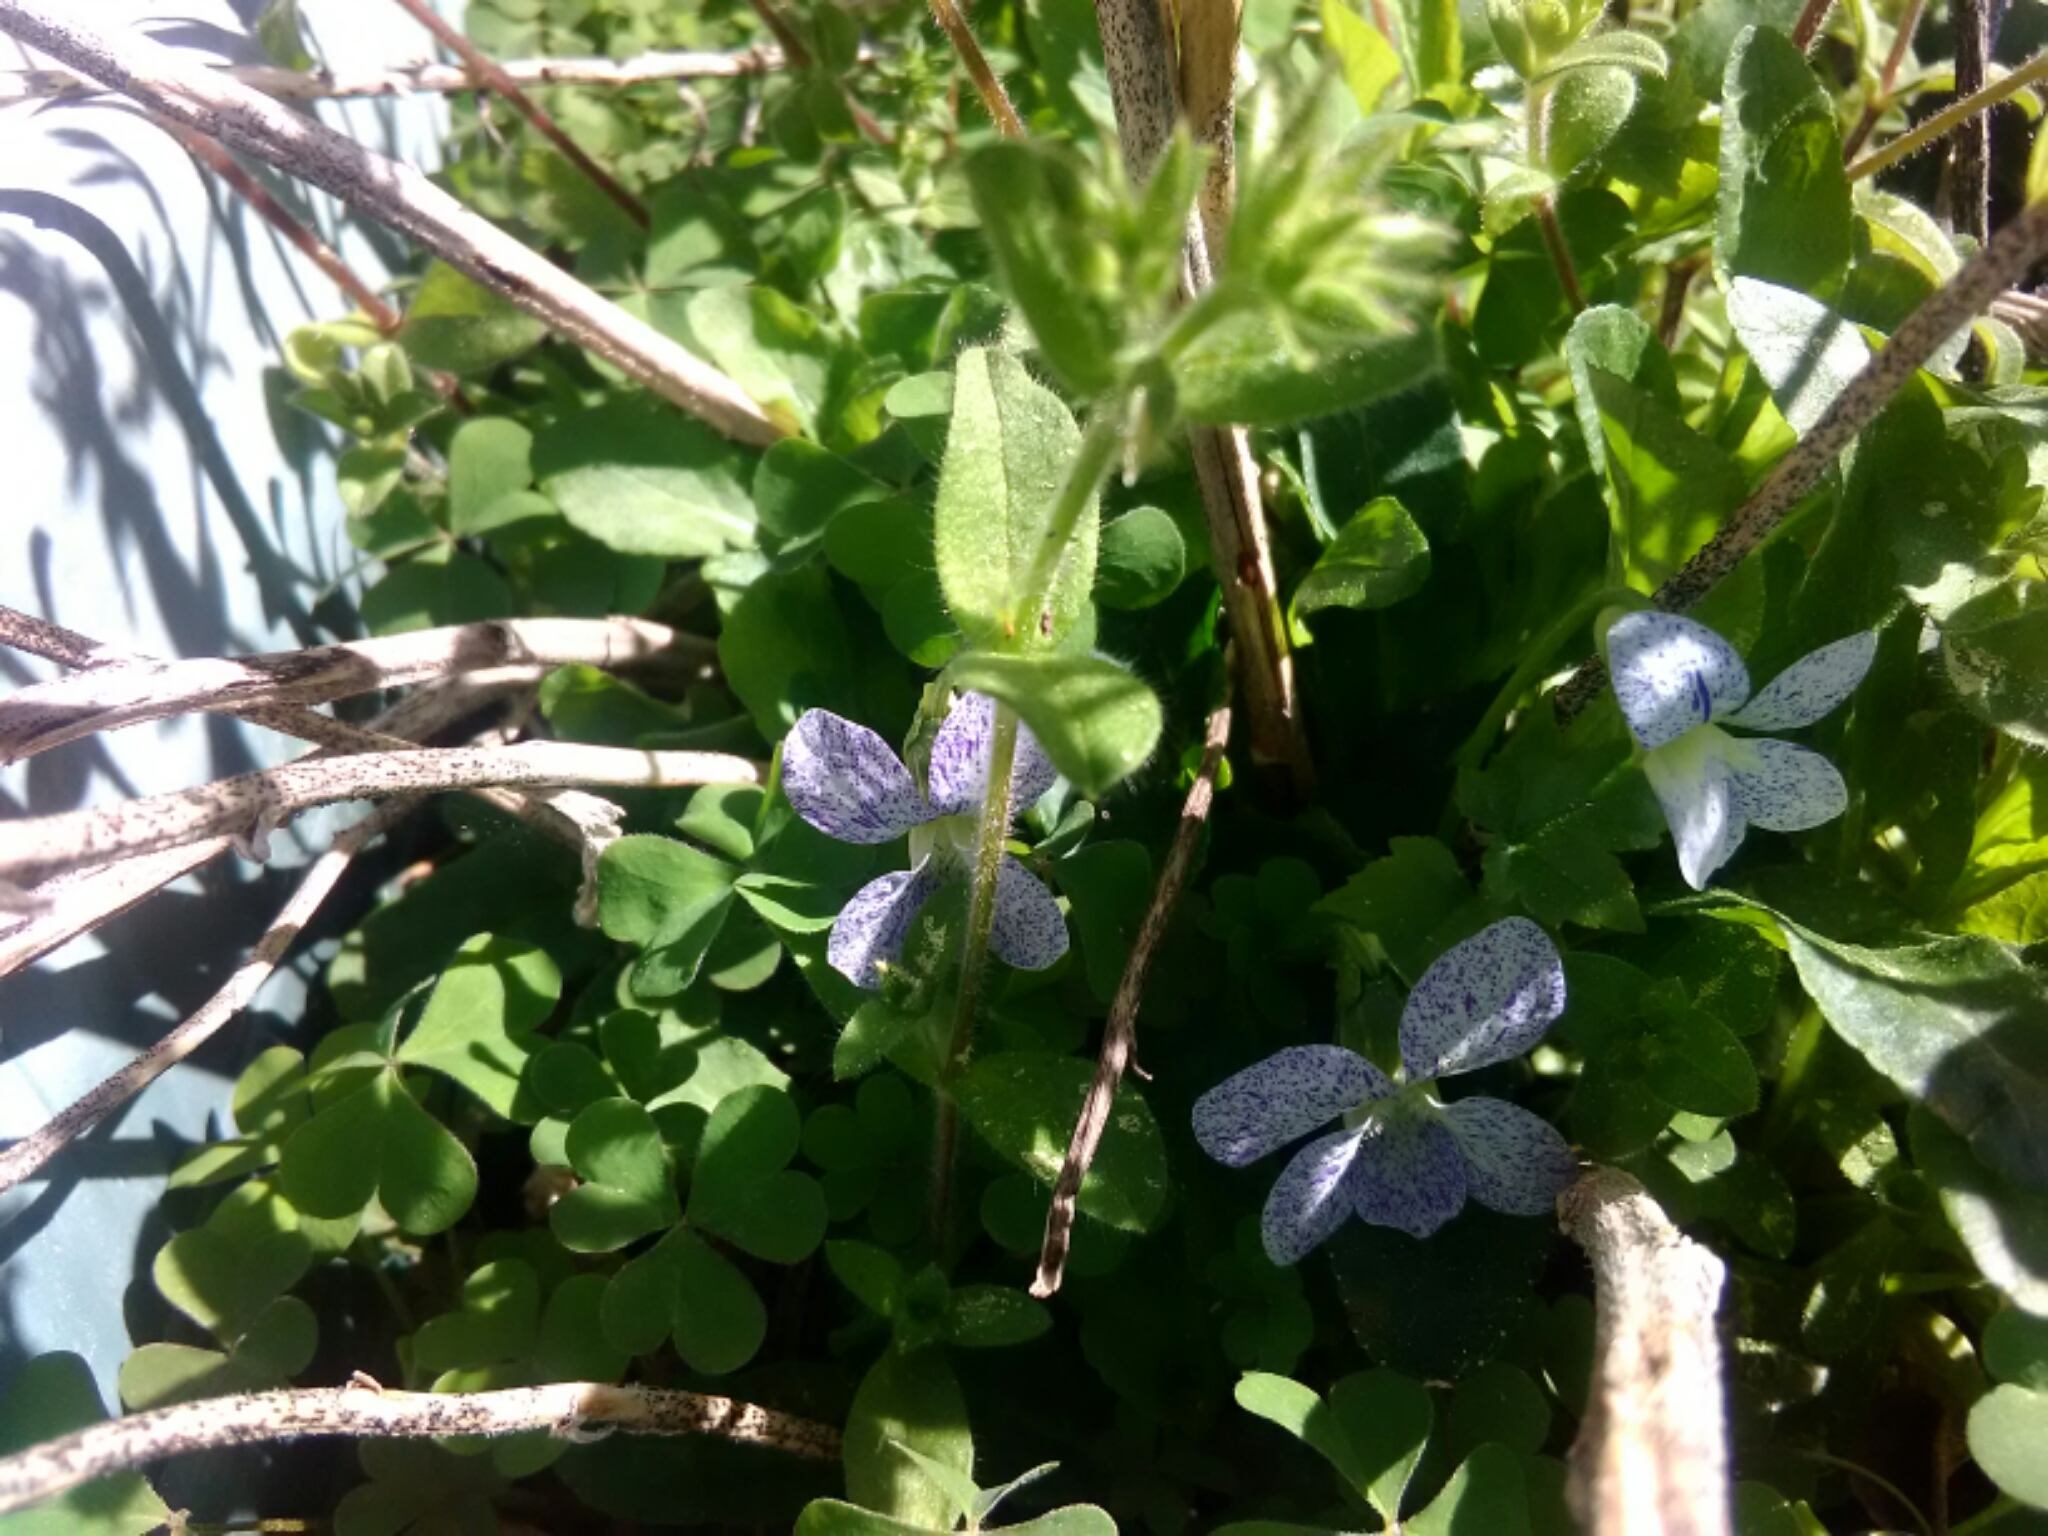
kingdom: Plantae
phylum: Tracheophyta
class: Magnoliopsida
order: Malpighiales
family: Violaceae
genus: Viola
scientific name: Viola sororia
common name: Dooryard violet
